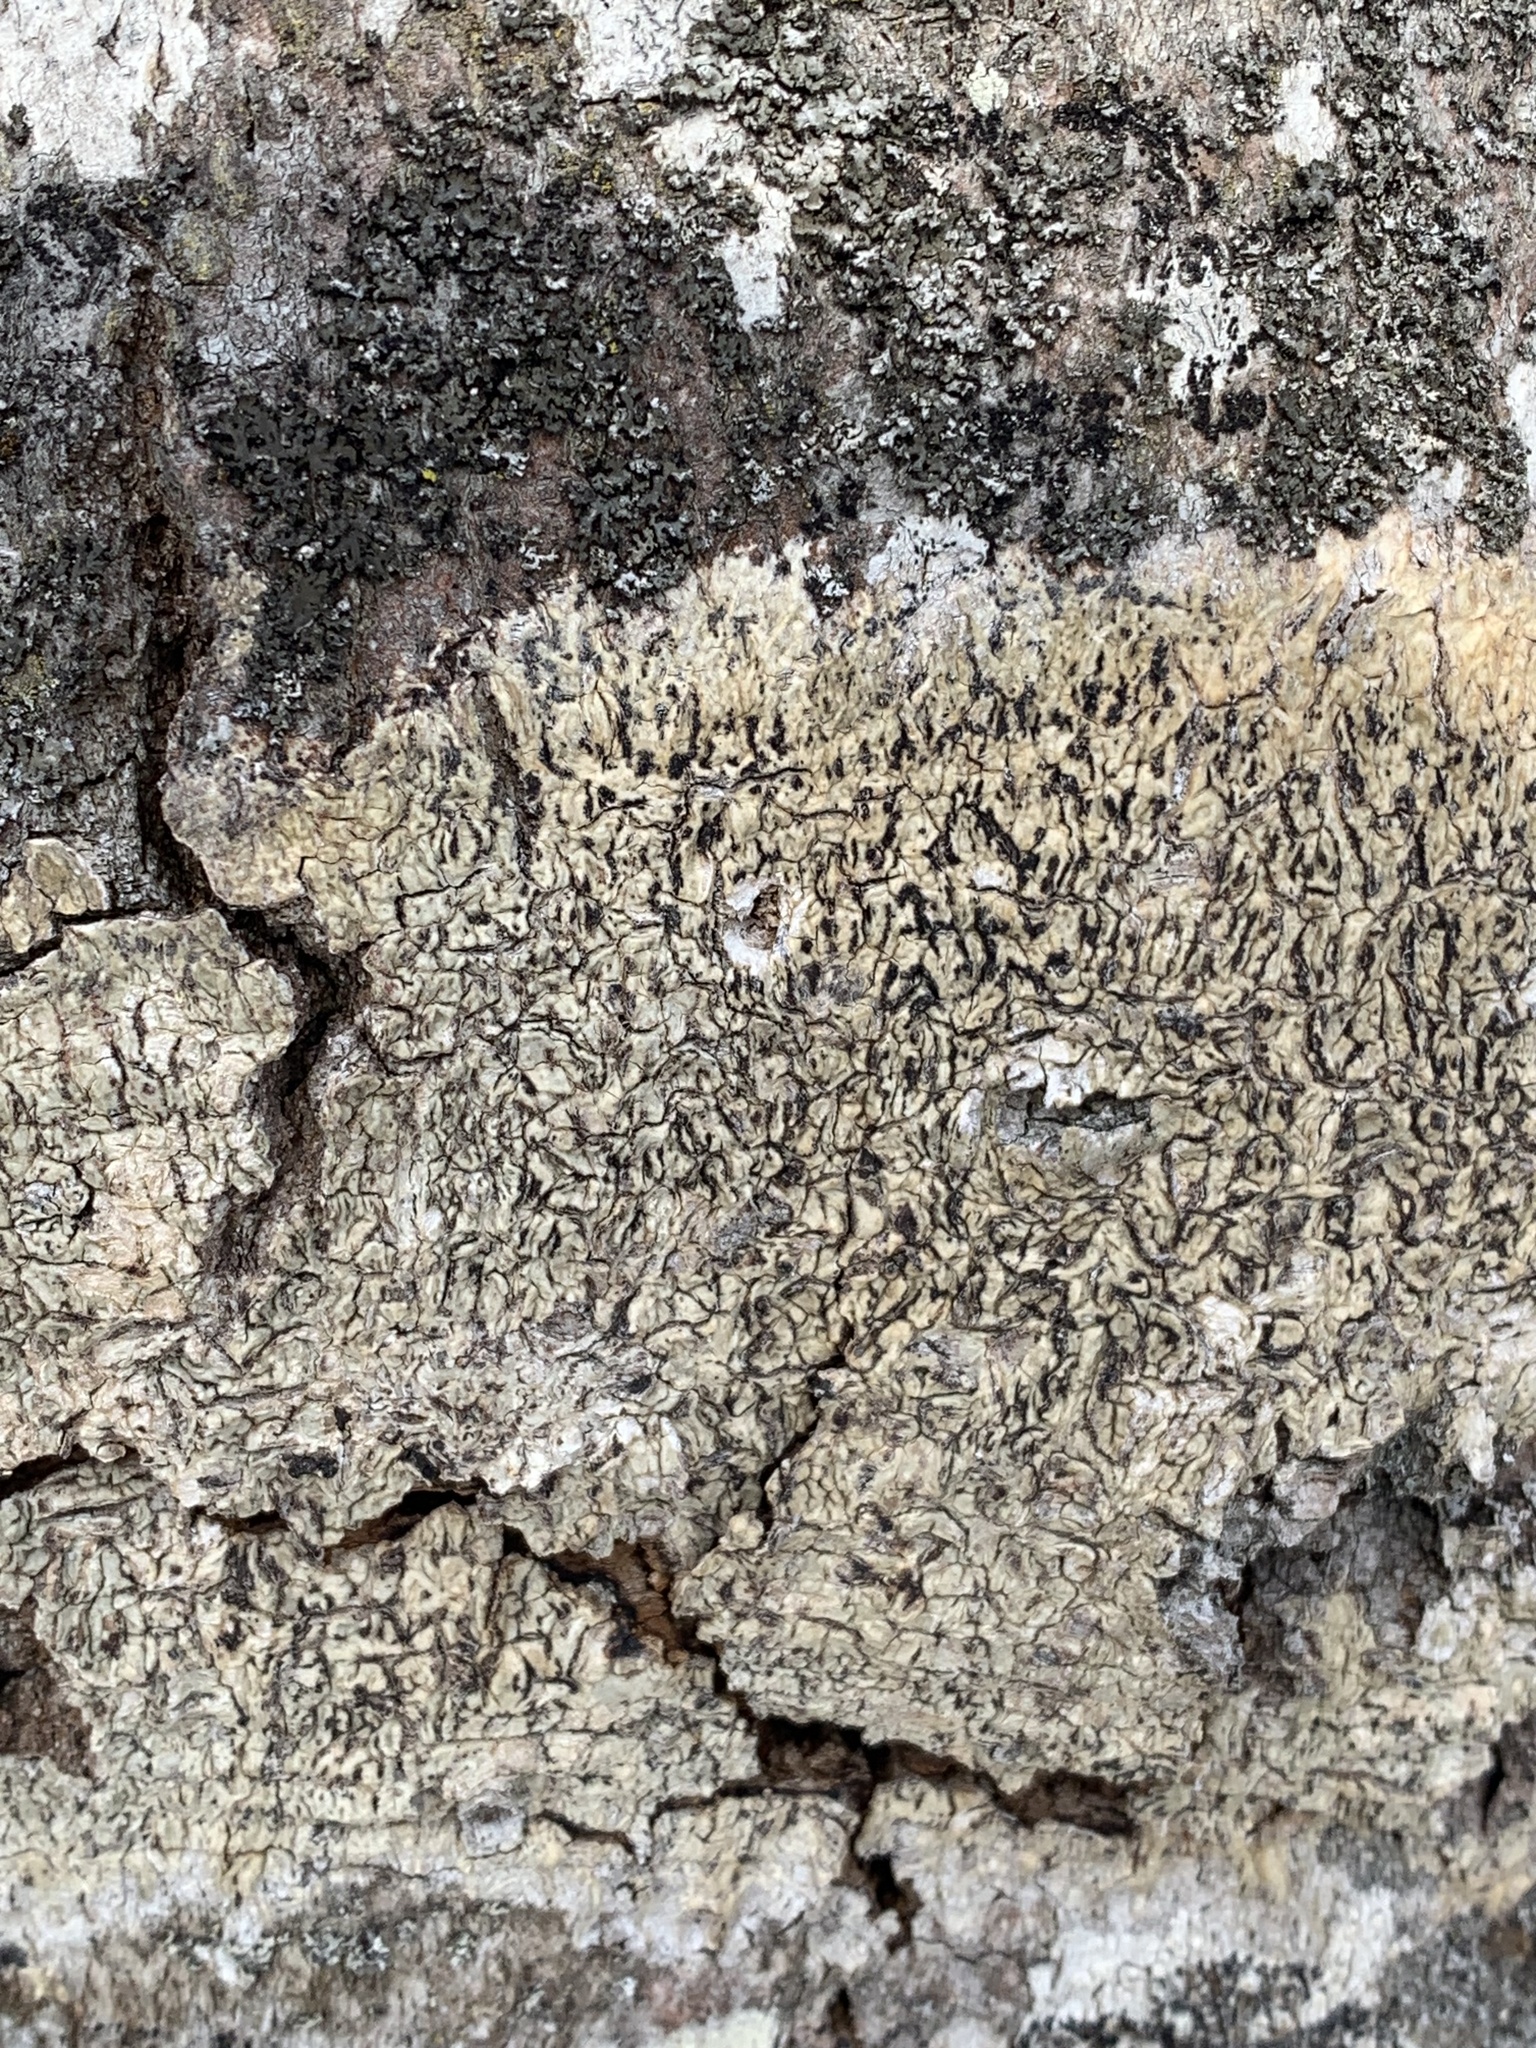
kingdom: Fungi
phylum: Ascomycota
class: Dothideomycetes
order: Trypetheliales
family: Trypetheliaceae
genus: Viridothelium
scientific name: Viridothelium virens
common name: Speckled blister lichen
